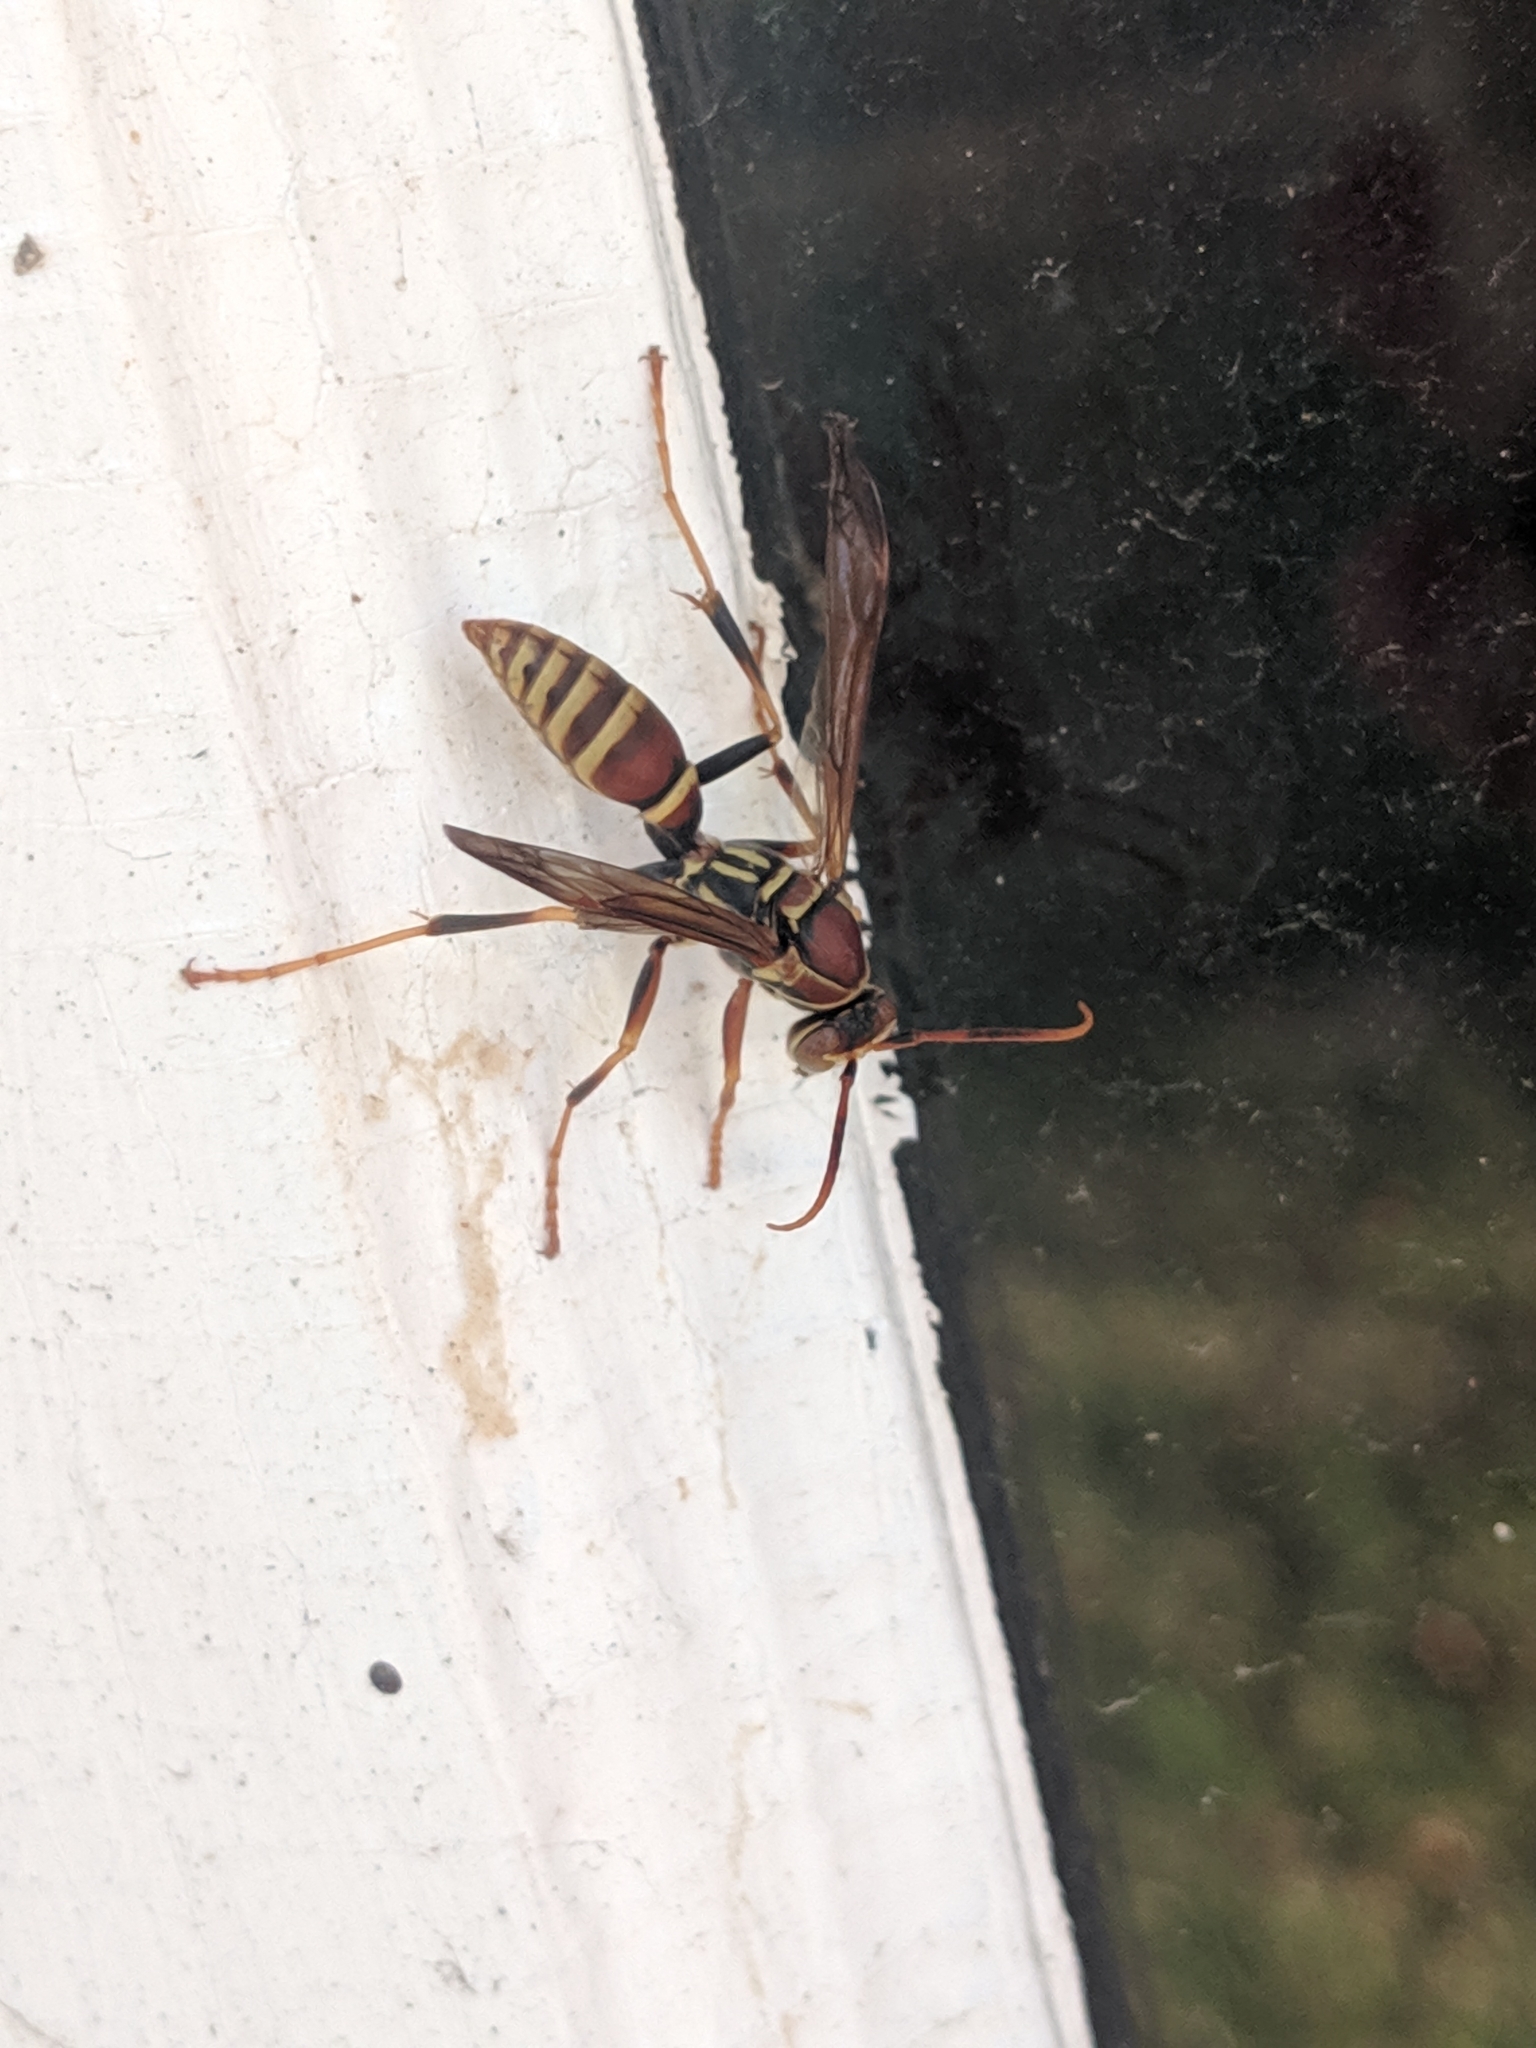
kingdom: Animalia
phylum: Arthropoda
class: Insecta
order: Hymenoptera
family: Eumenidae
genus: Polistes
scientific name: Polistes exclamans
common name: Paper wasp
